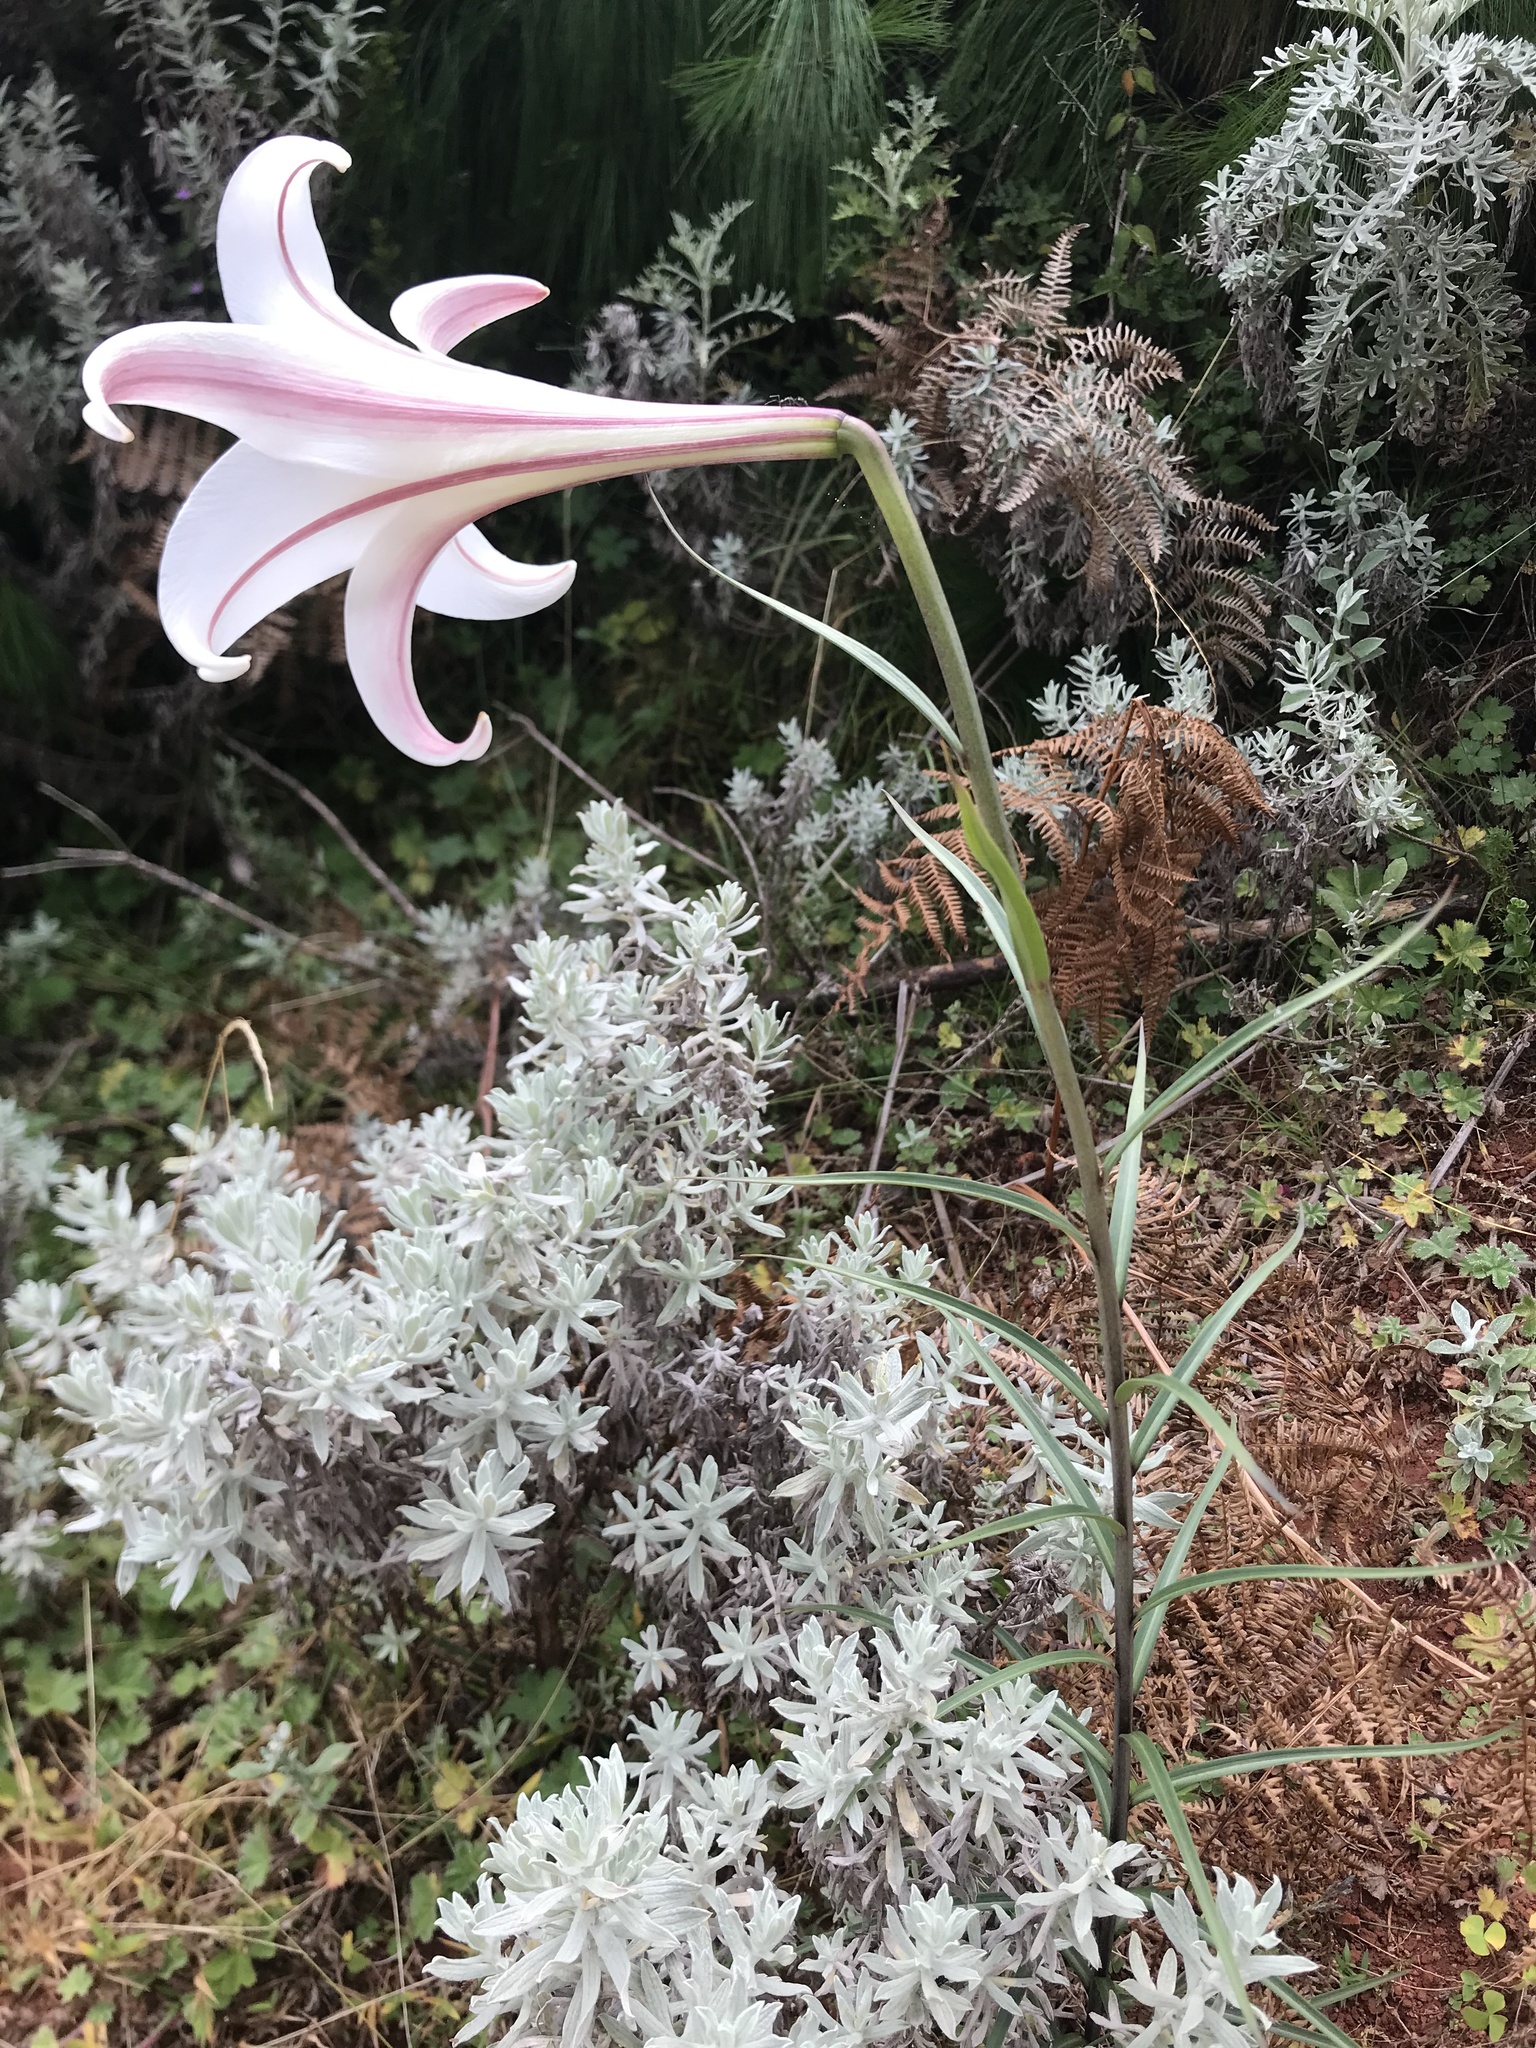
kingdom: Plantae
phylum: Tracheophyta
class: Liliopsida
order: Liliales
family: Liliaceae
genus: Lilium
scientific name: Lilium formosanum
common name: Formosa lily
